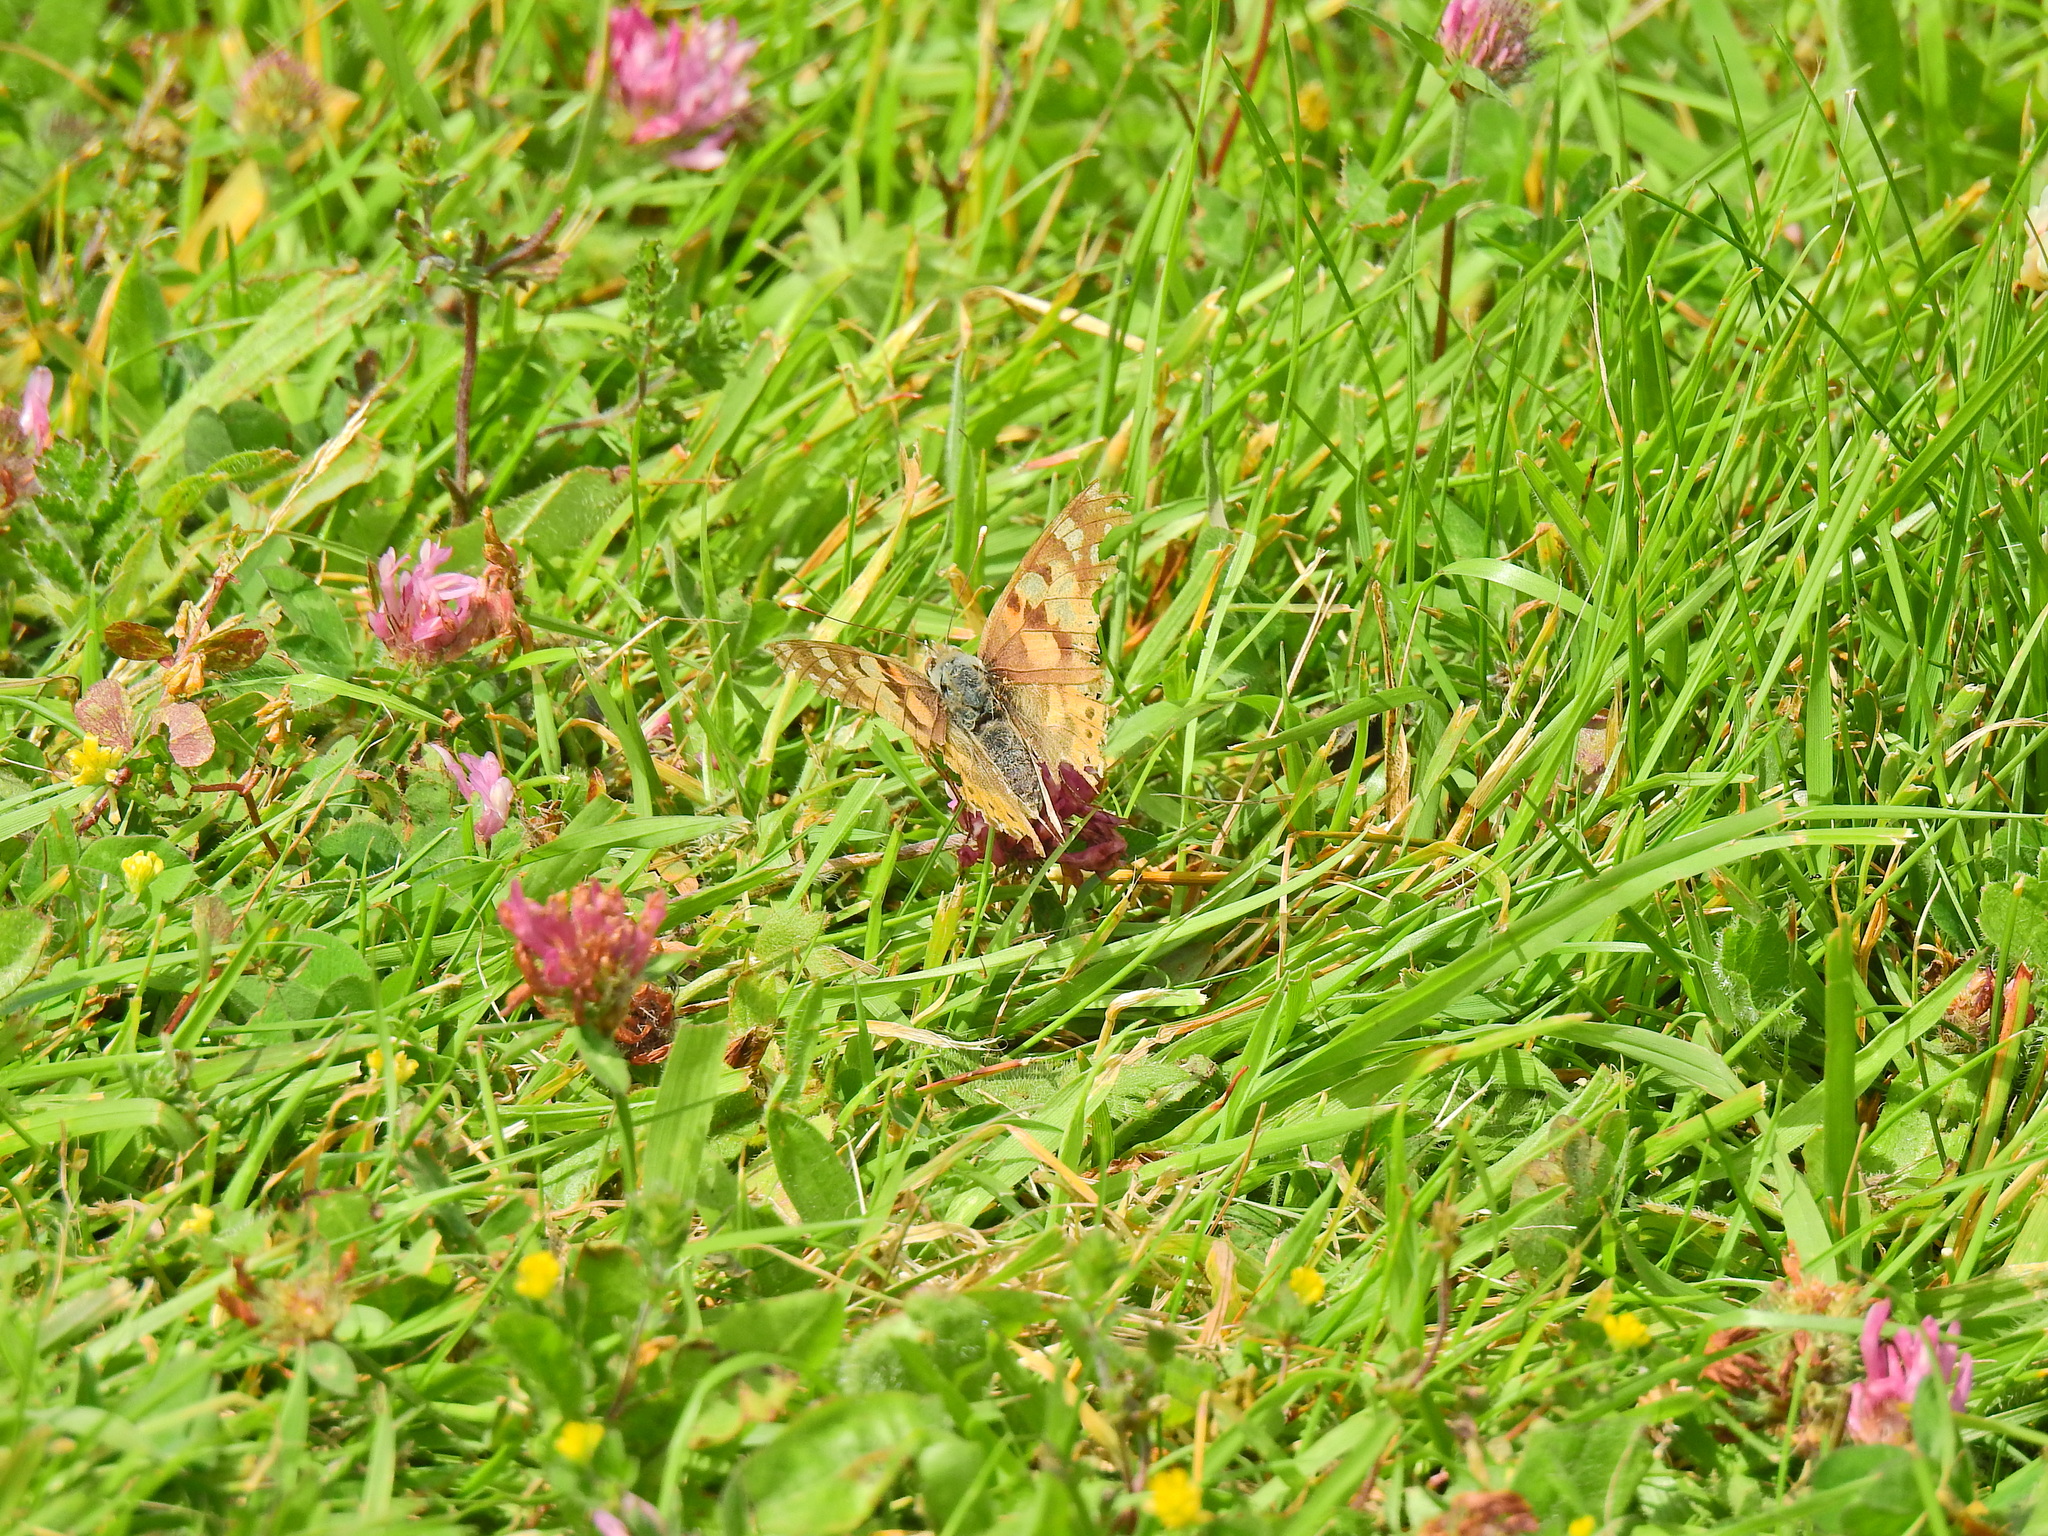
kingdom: Animalia
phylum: Arthropoda
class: Insecta
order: Lepidoptera
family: Nymphalidae
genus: Vanessa
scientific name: Vanessa cardui
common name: Painted lady
